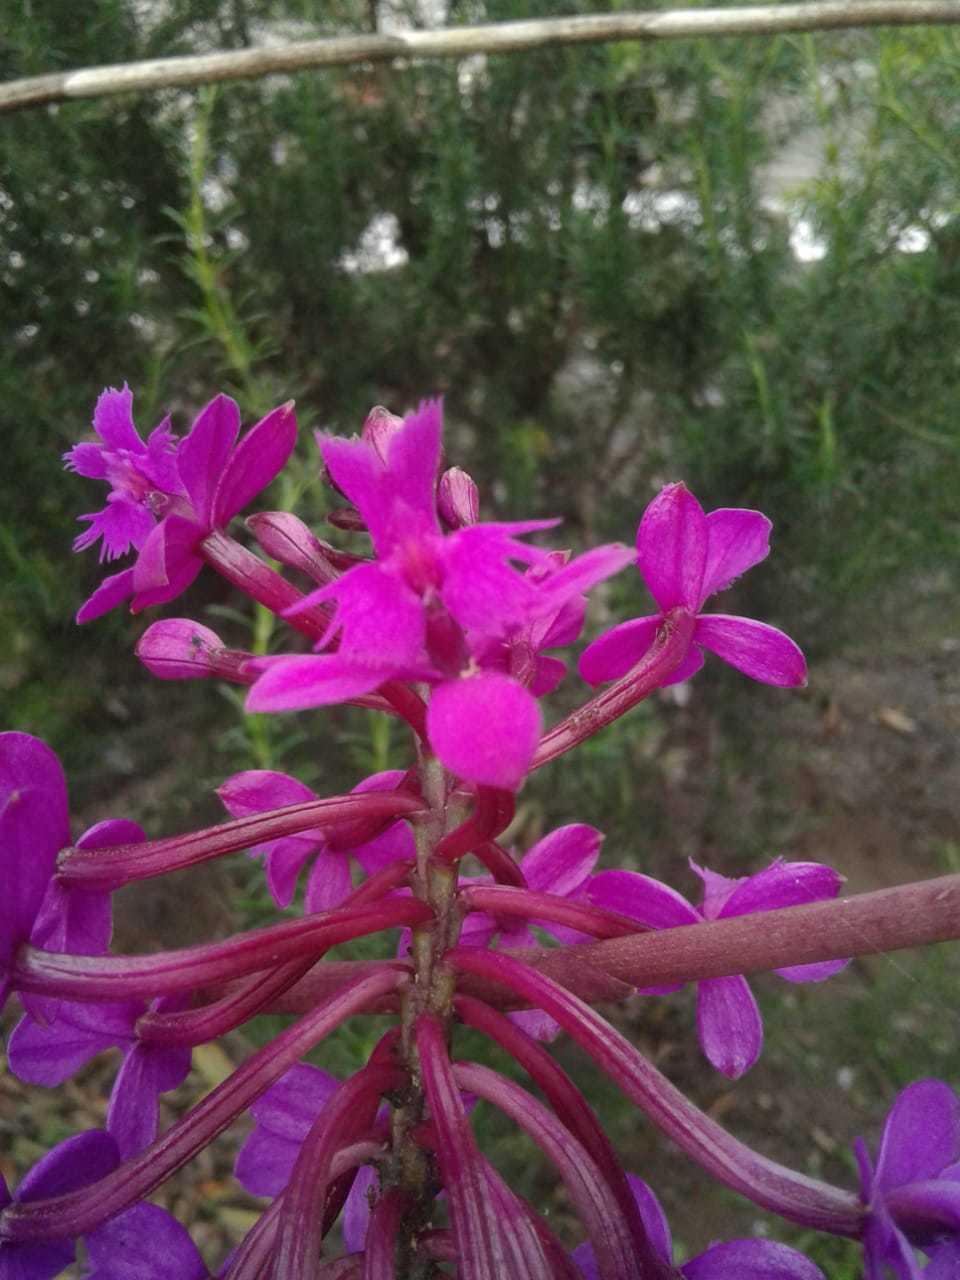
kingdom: Plantae
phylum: Tracheophyta
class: Liliopsida
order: Asparagales
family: Orchidaceae
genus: Epidendrum
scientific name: Epidendrum jamiesonis
